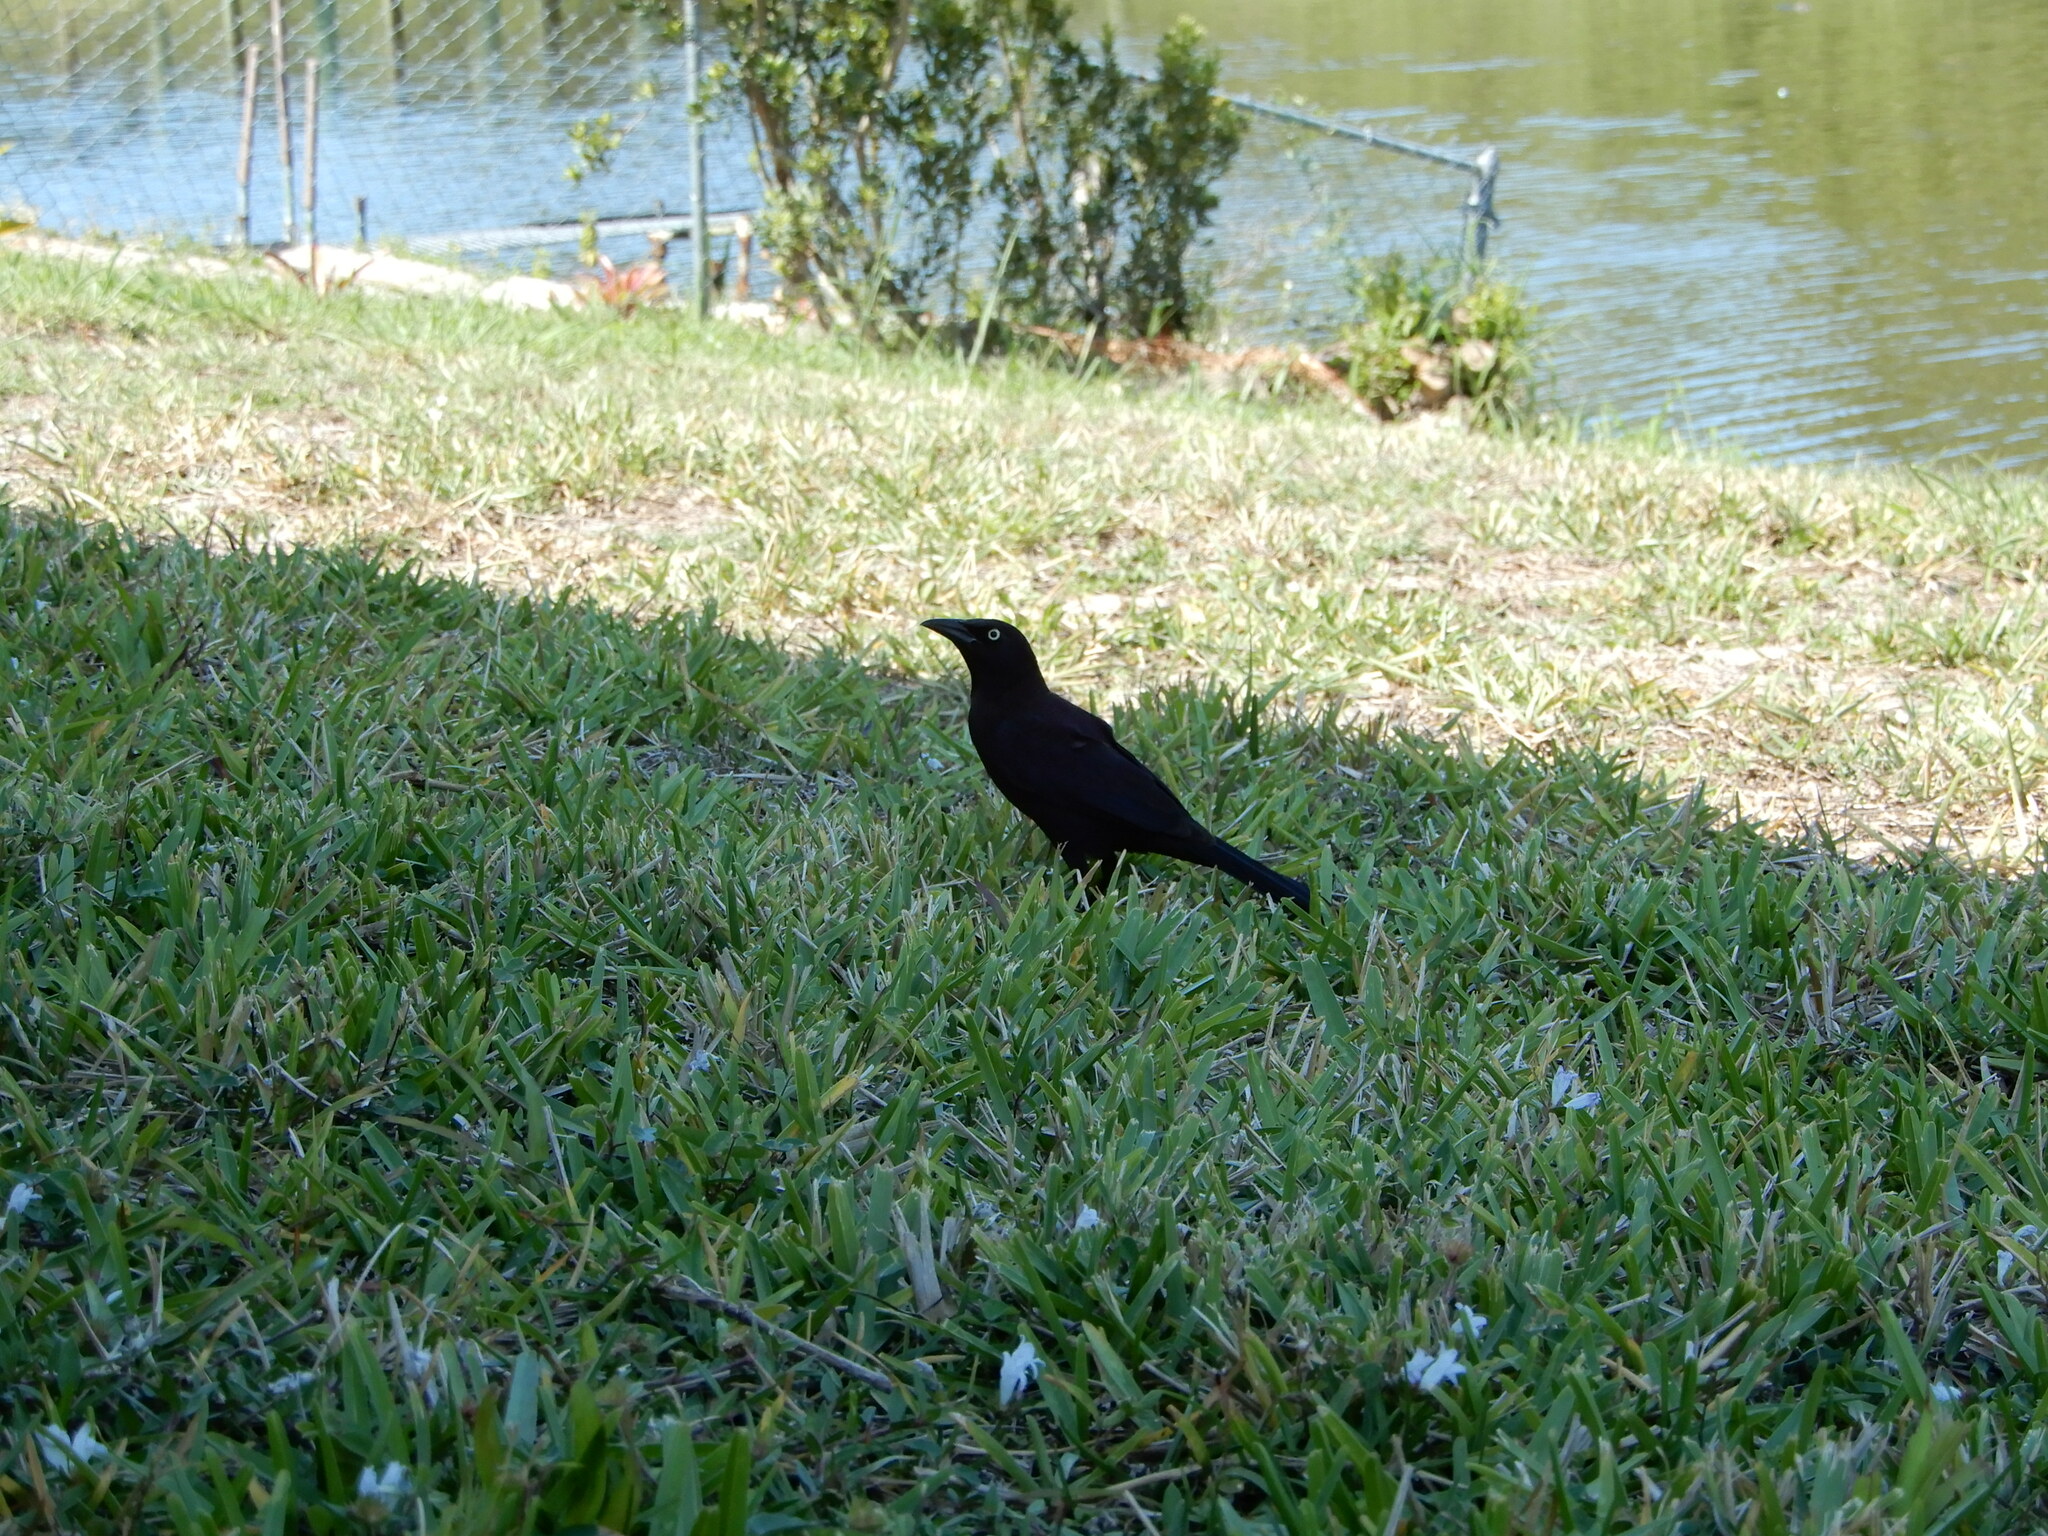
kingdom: Animalia
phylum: Chordata
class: Aves
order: Passeriformes
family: Icteridae
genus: Quiscalus
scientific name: Quiscalus quiscula
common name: Common grackle
